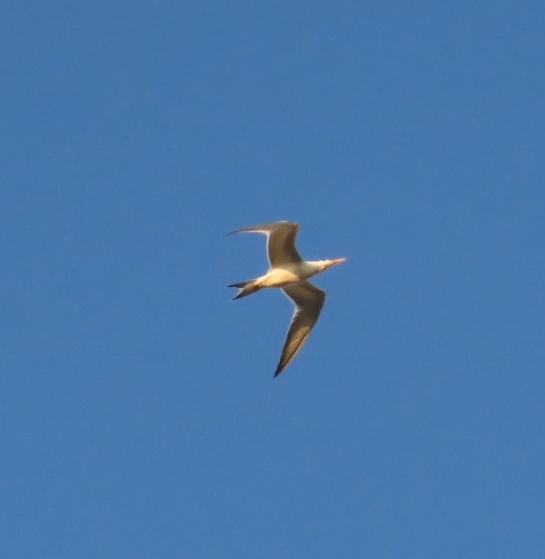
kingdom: Animalia
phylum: Chordata
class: Aves
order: Charadriiformes
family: Laridae
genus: Thalasseus
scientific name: Thalasseus maximus
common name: Royal tern
